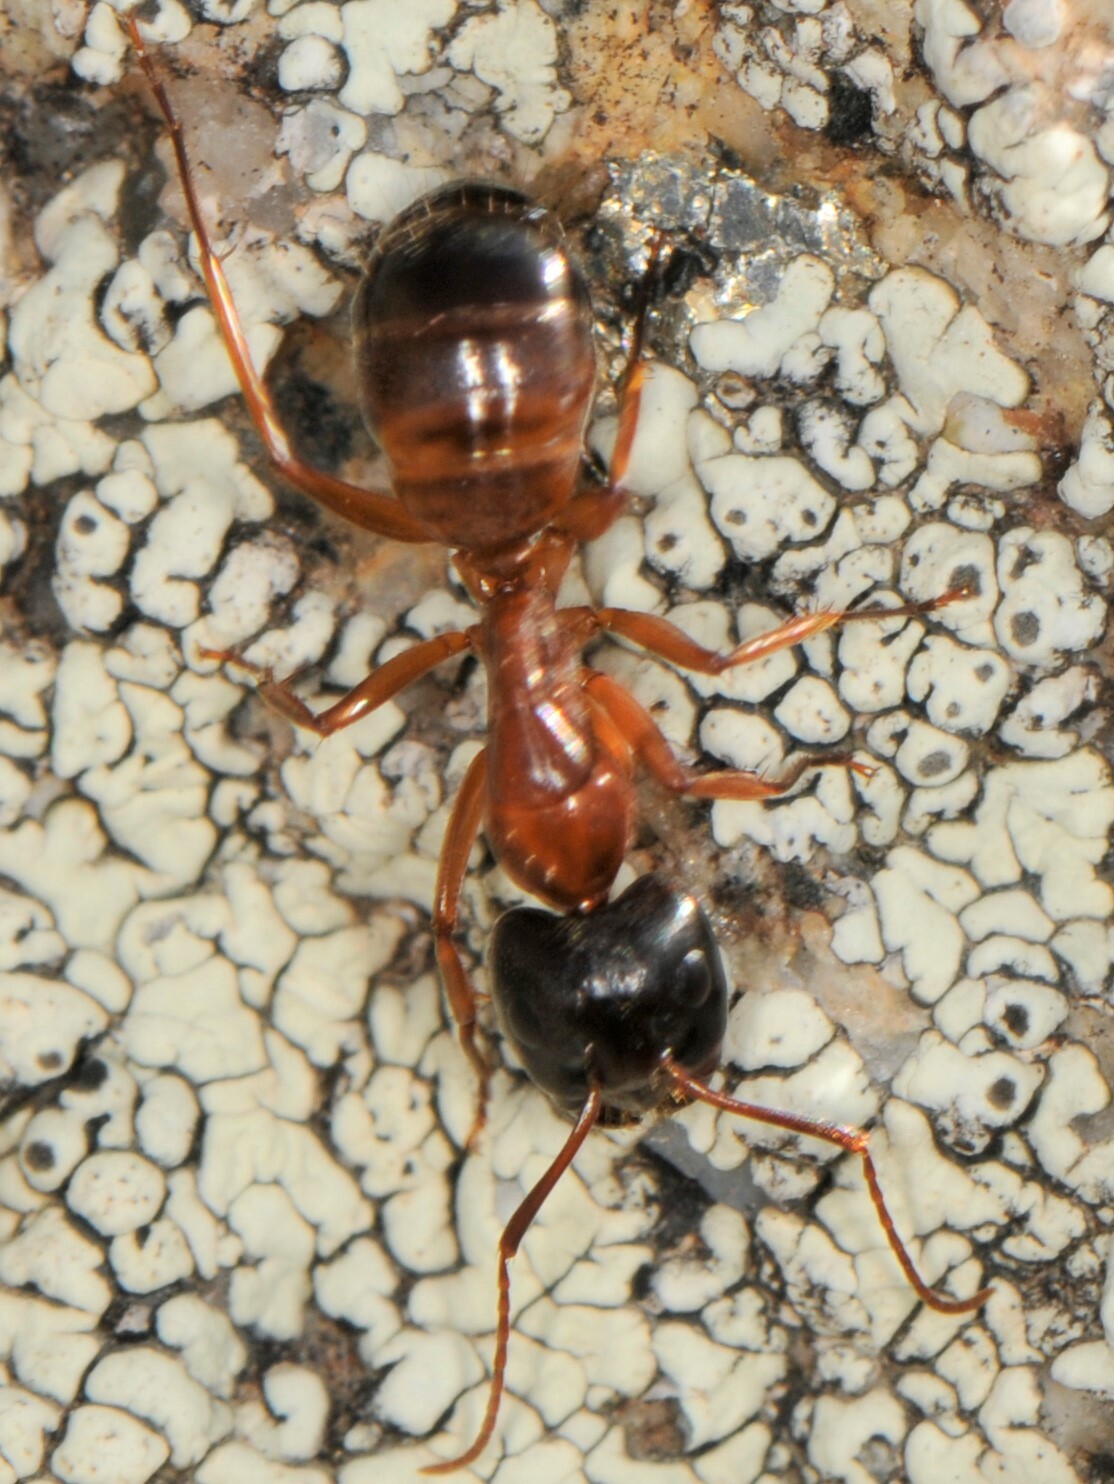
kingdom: Animalia
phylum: Arthropoda
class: Insecta
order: Hymenoptera
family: Formicidae
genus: Camponotus
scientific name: Camponotus
